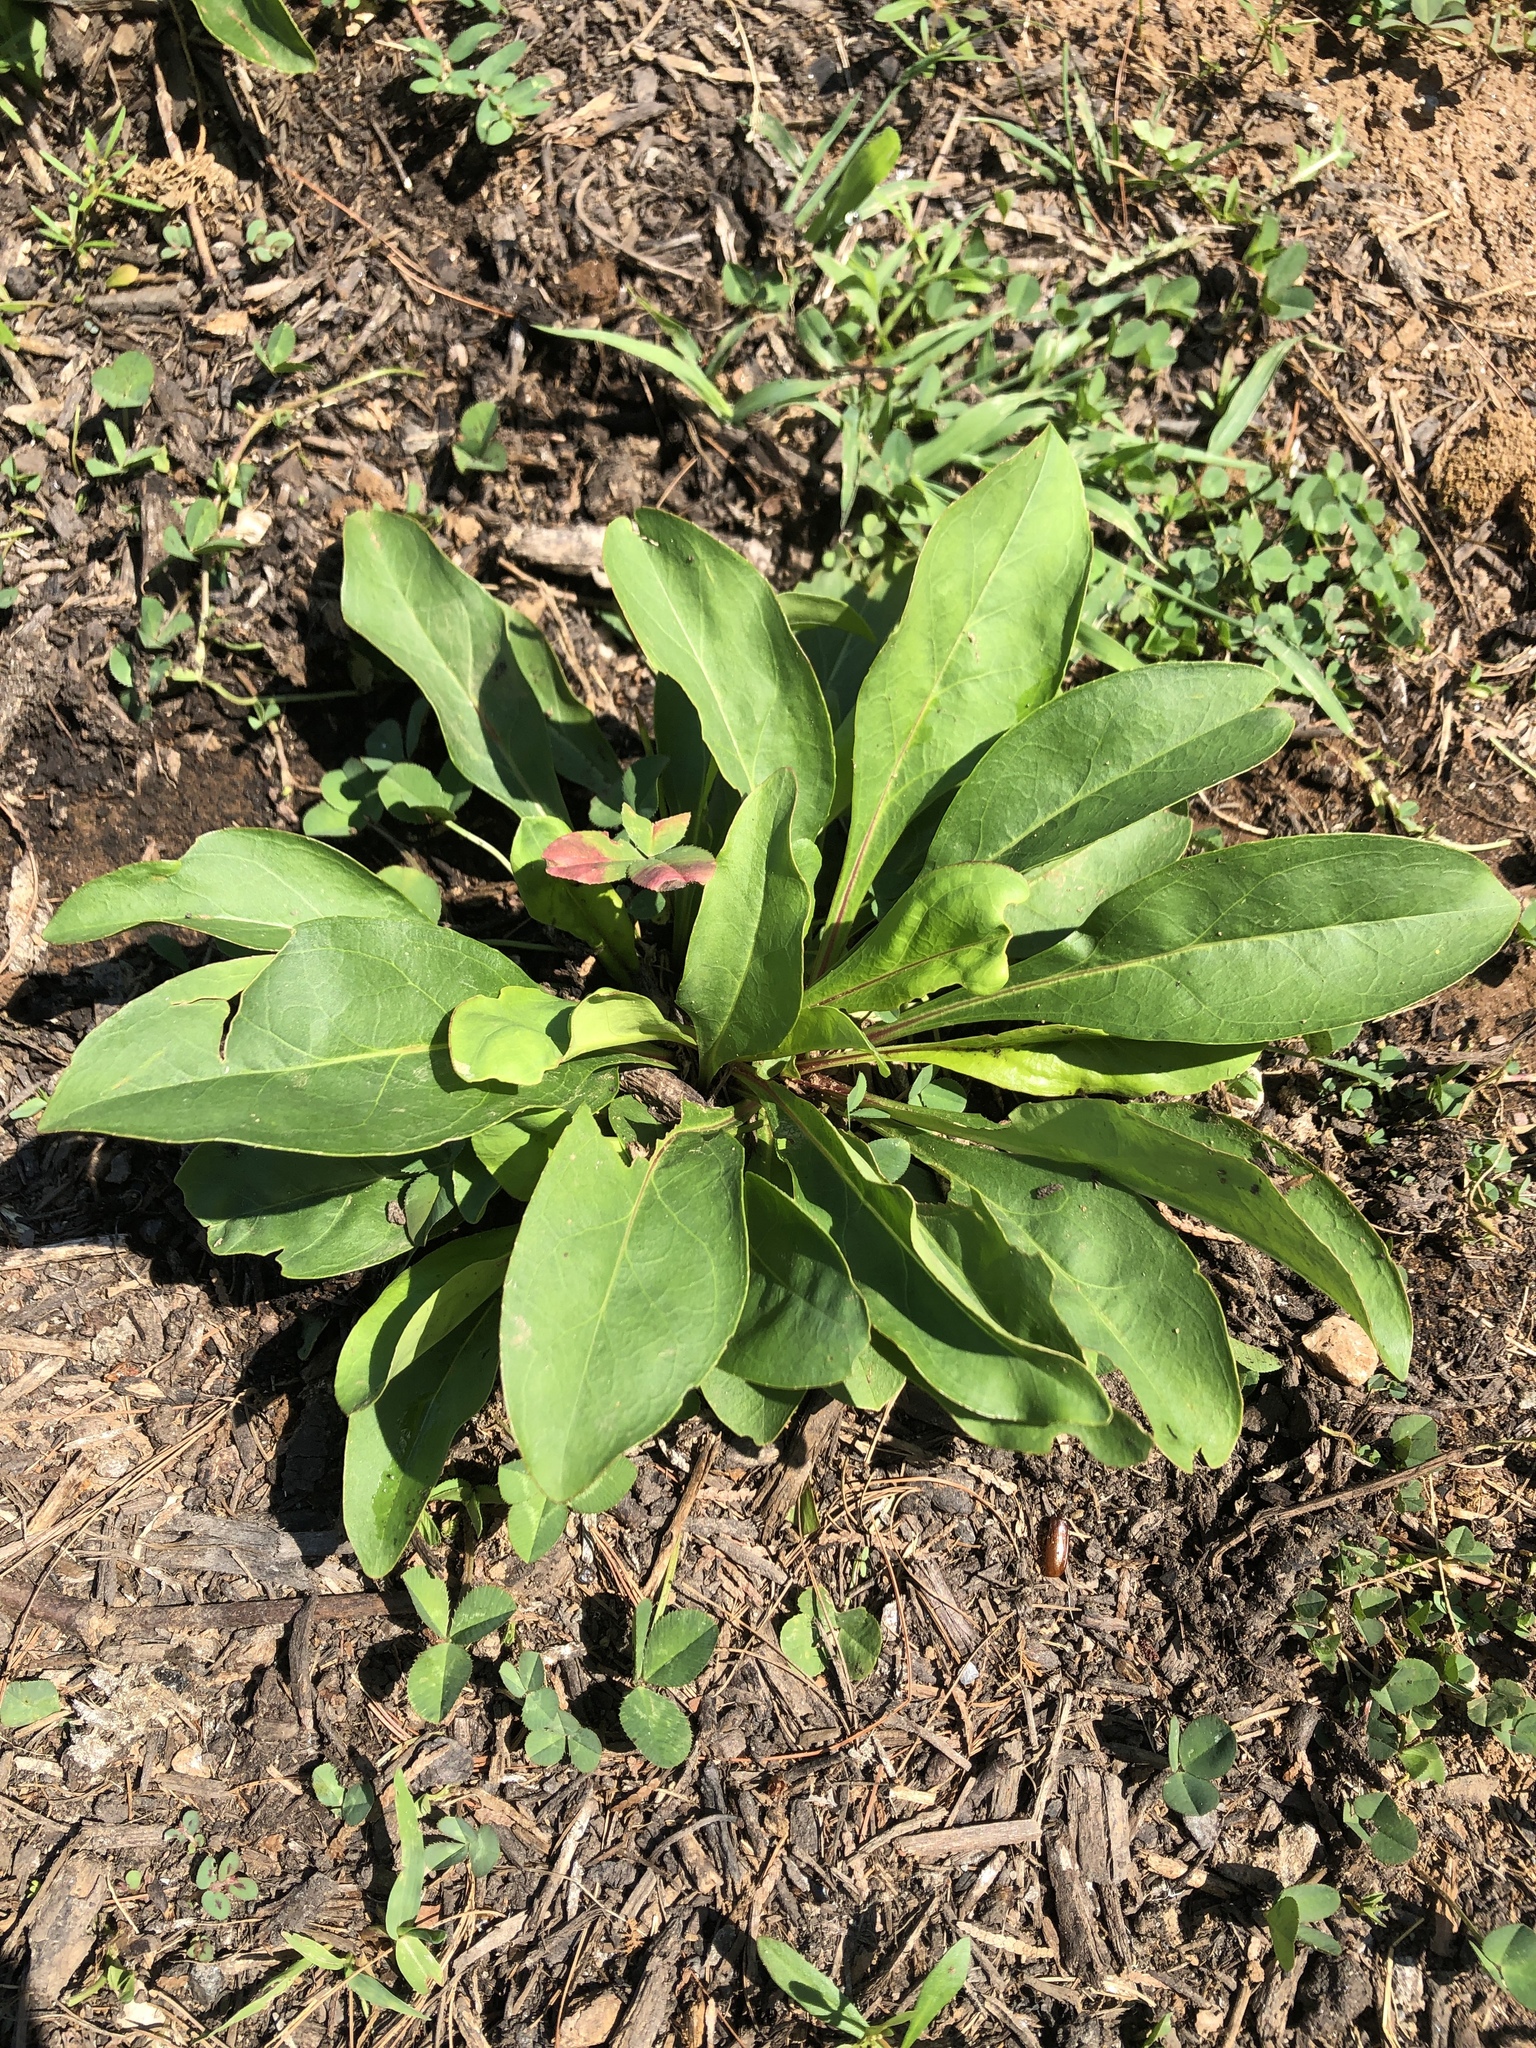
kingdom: Plantae
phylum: Tracheophyta
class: Magnoliopsida
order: Lamiales
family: Plantaginaceae
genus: Penstemon
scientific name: Penstemon digitalis
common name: Foxglove beardtongue
